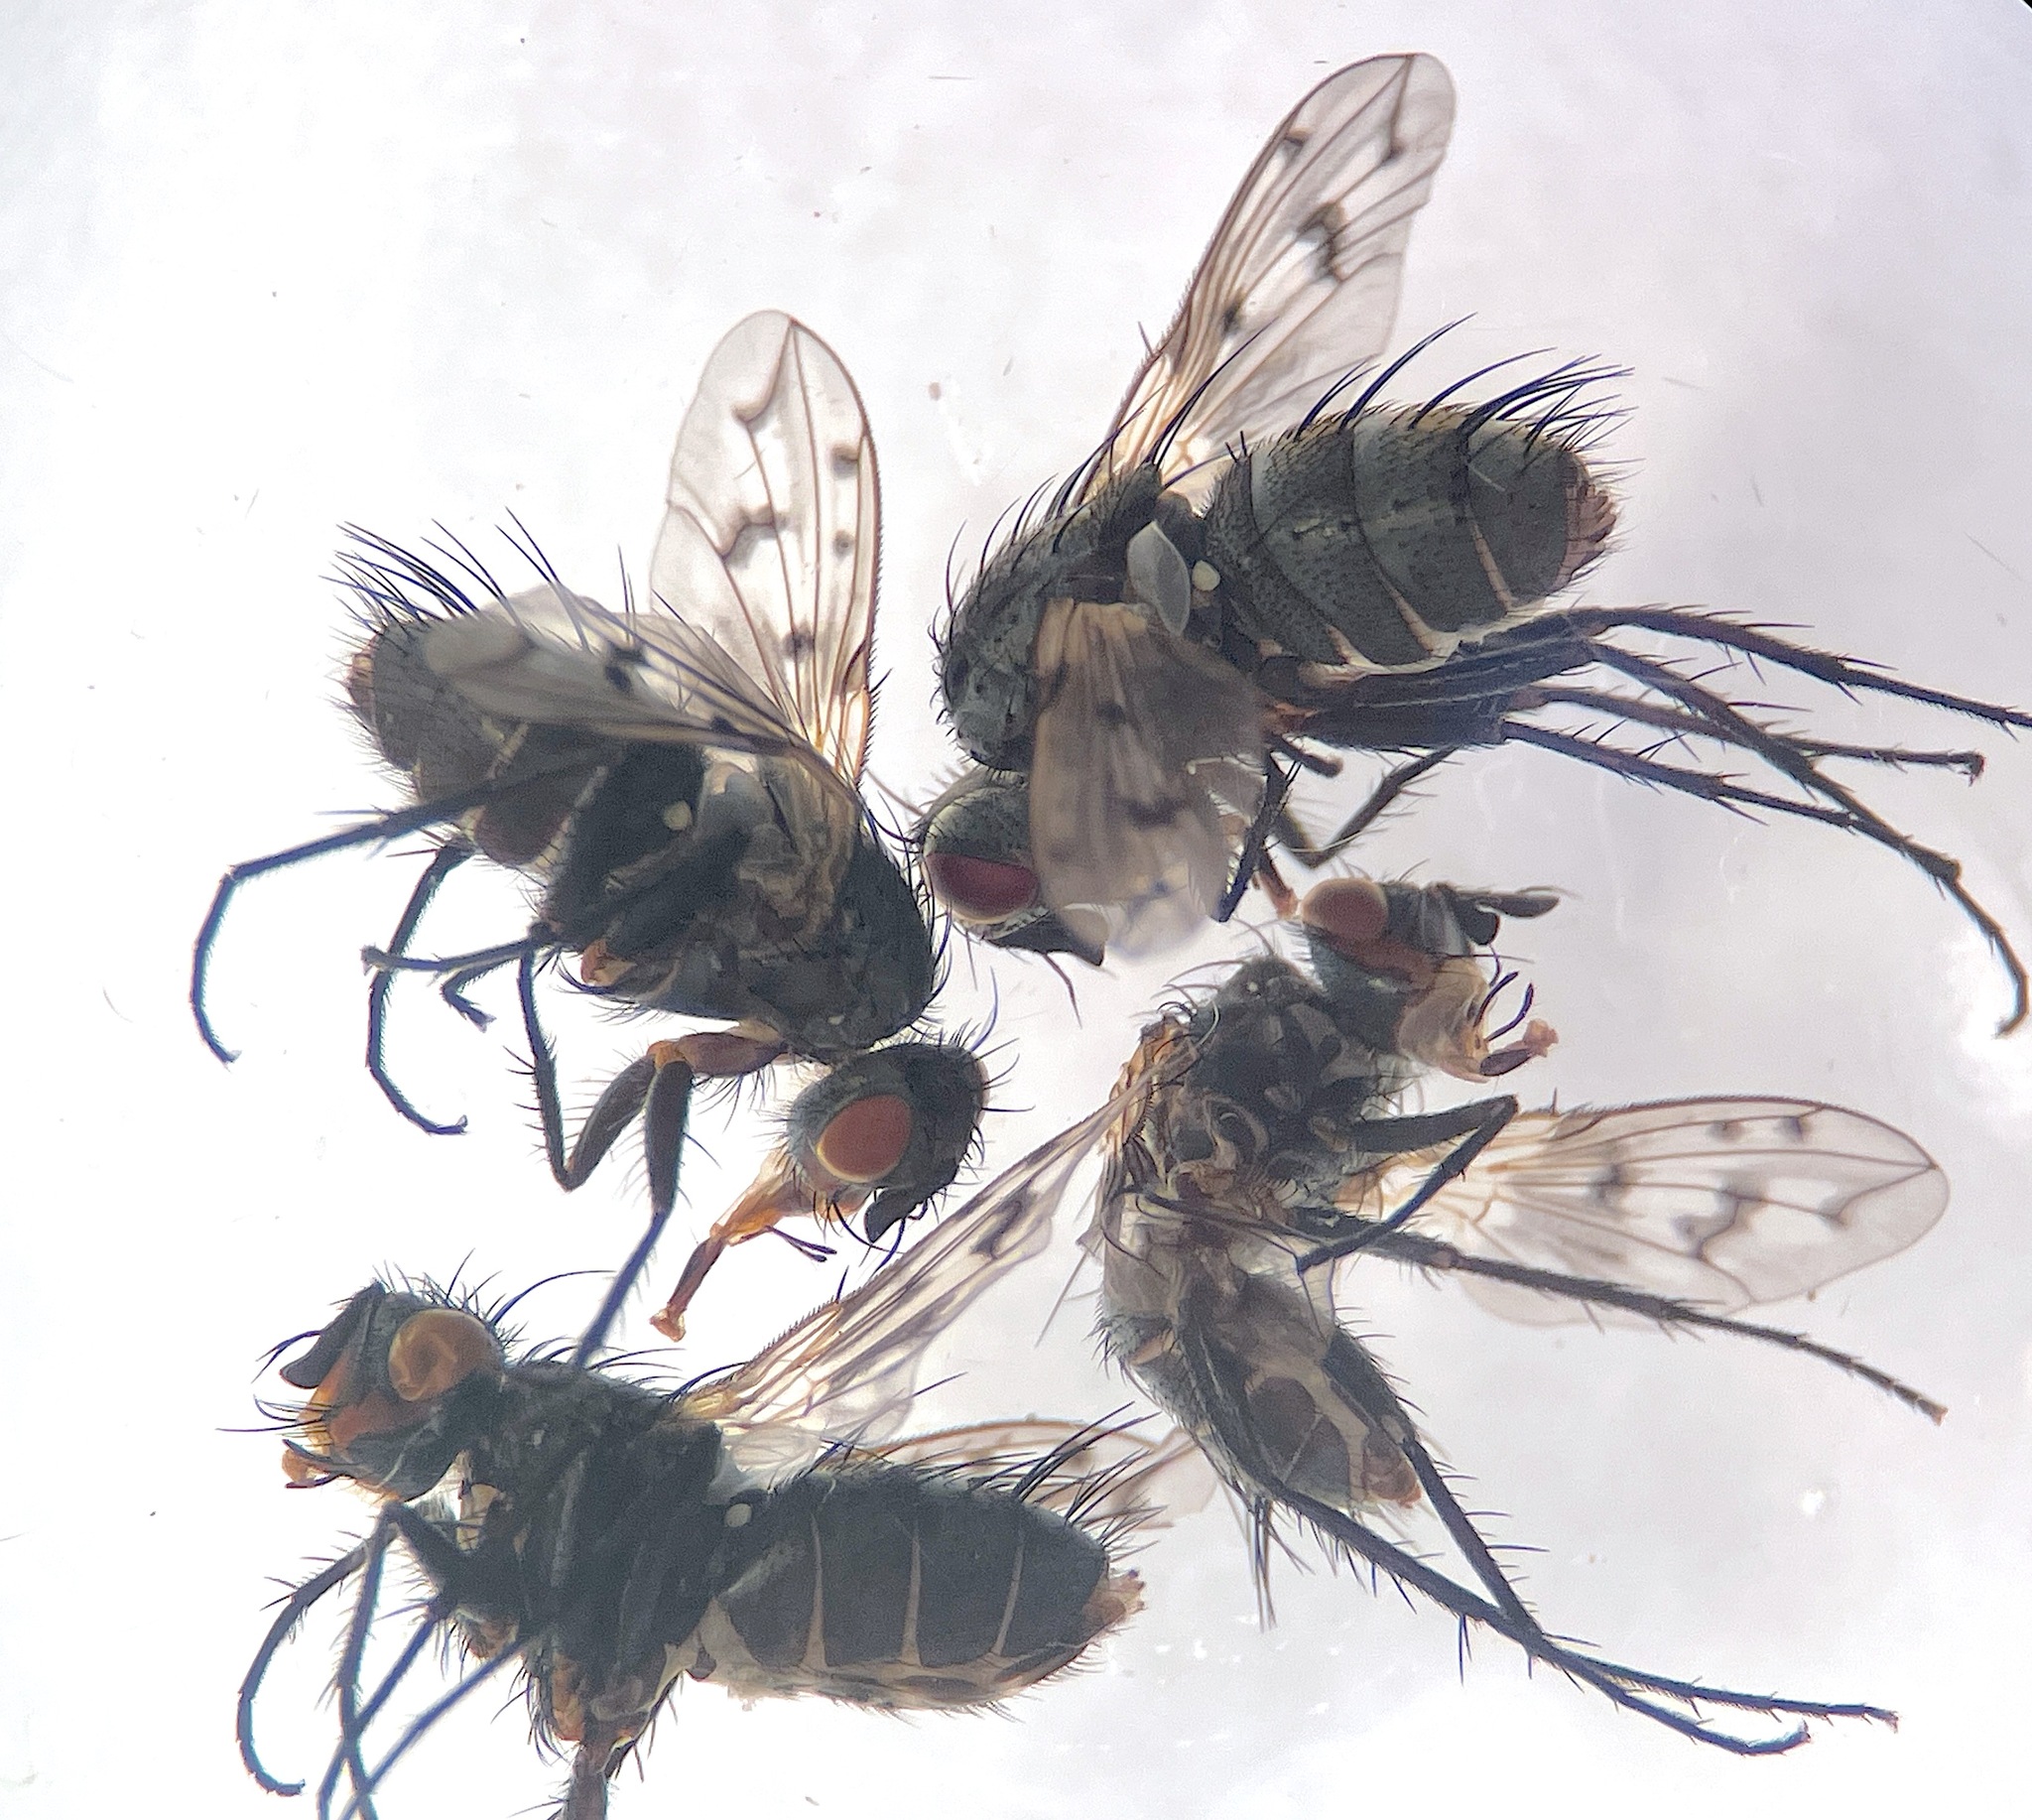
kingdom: Animalia
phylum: Arthropoda
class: Insecta
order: Diptera
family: Tachinidae
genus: Heteria
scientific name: Heteria appendiculata
